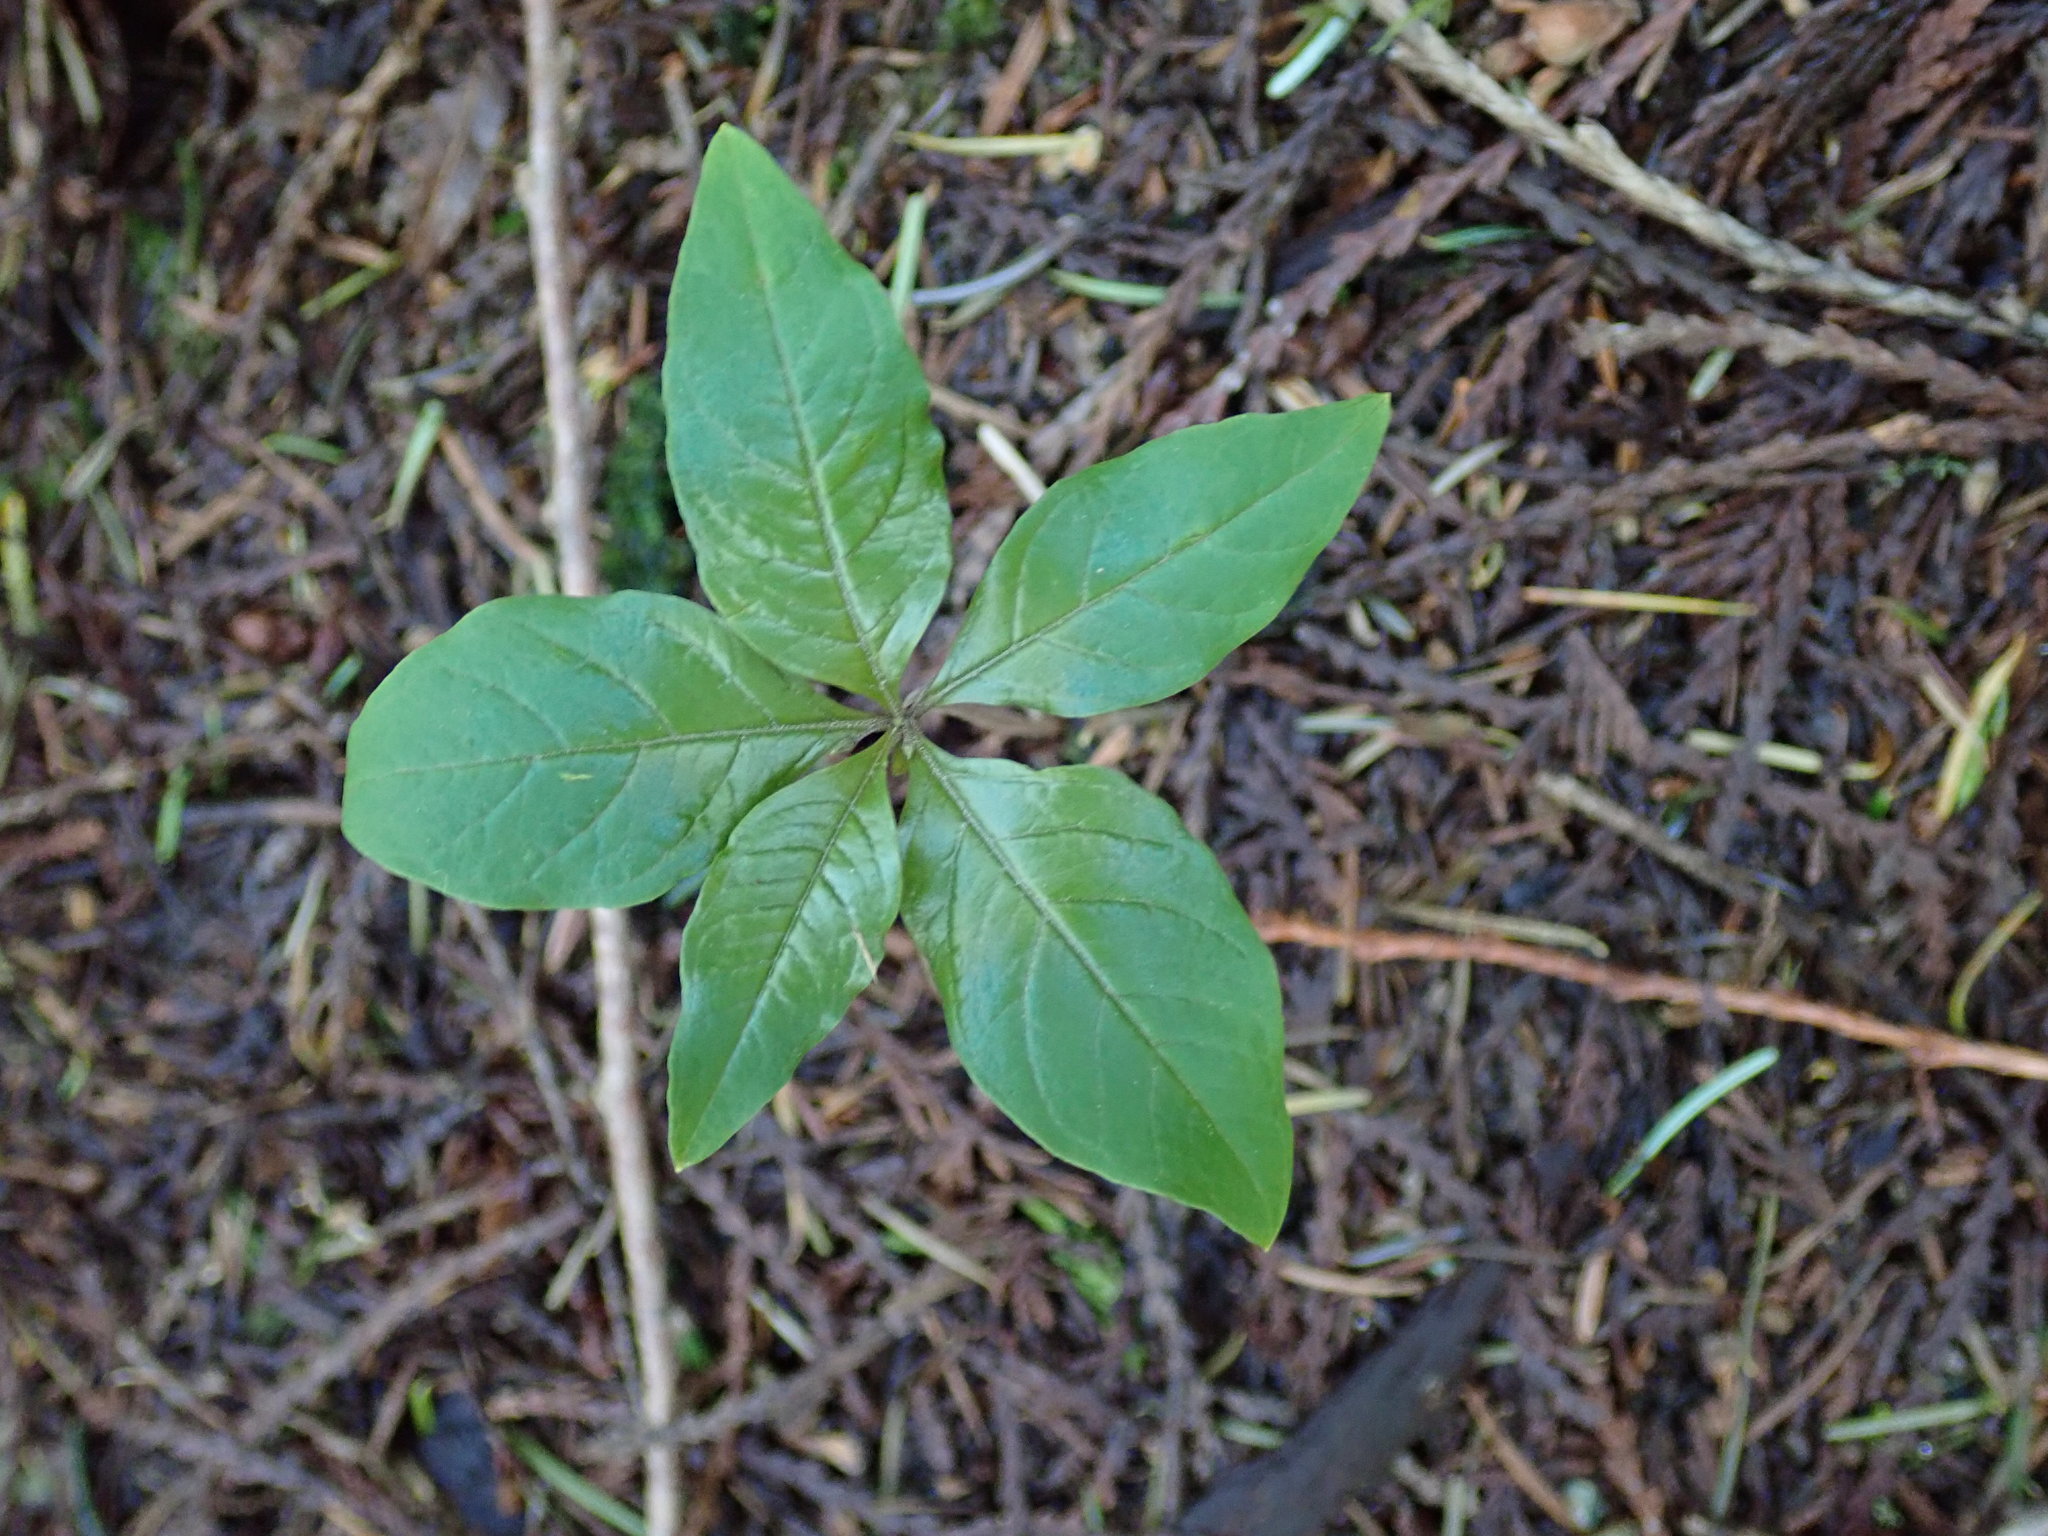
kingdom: Plantae
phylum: Tracheophyta
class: Magnoliopsida
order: Ericales
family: Primulaceae
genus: Lysimachia
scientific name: Lysimachia latifolia
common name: Pacific starflower
